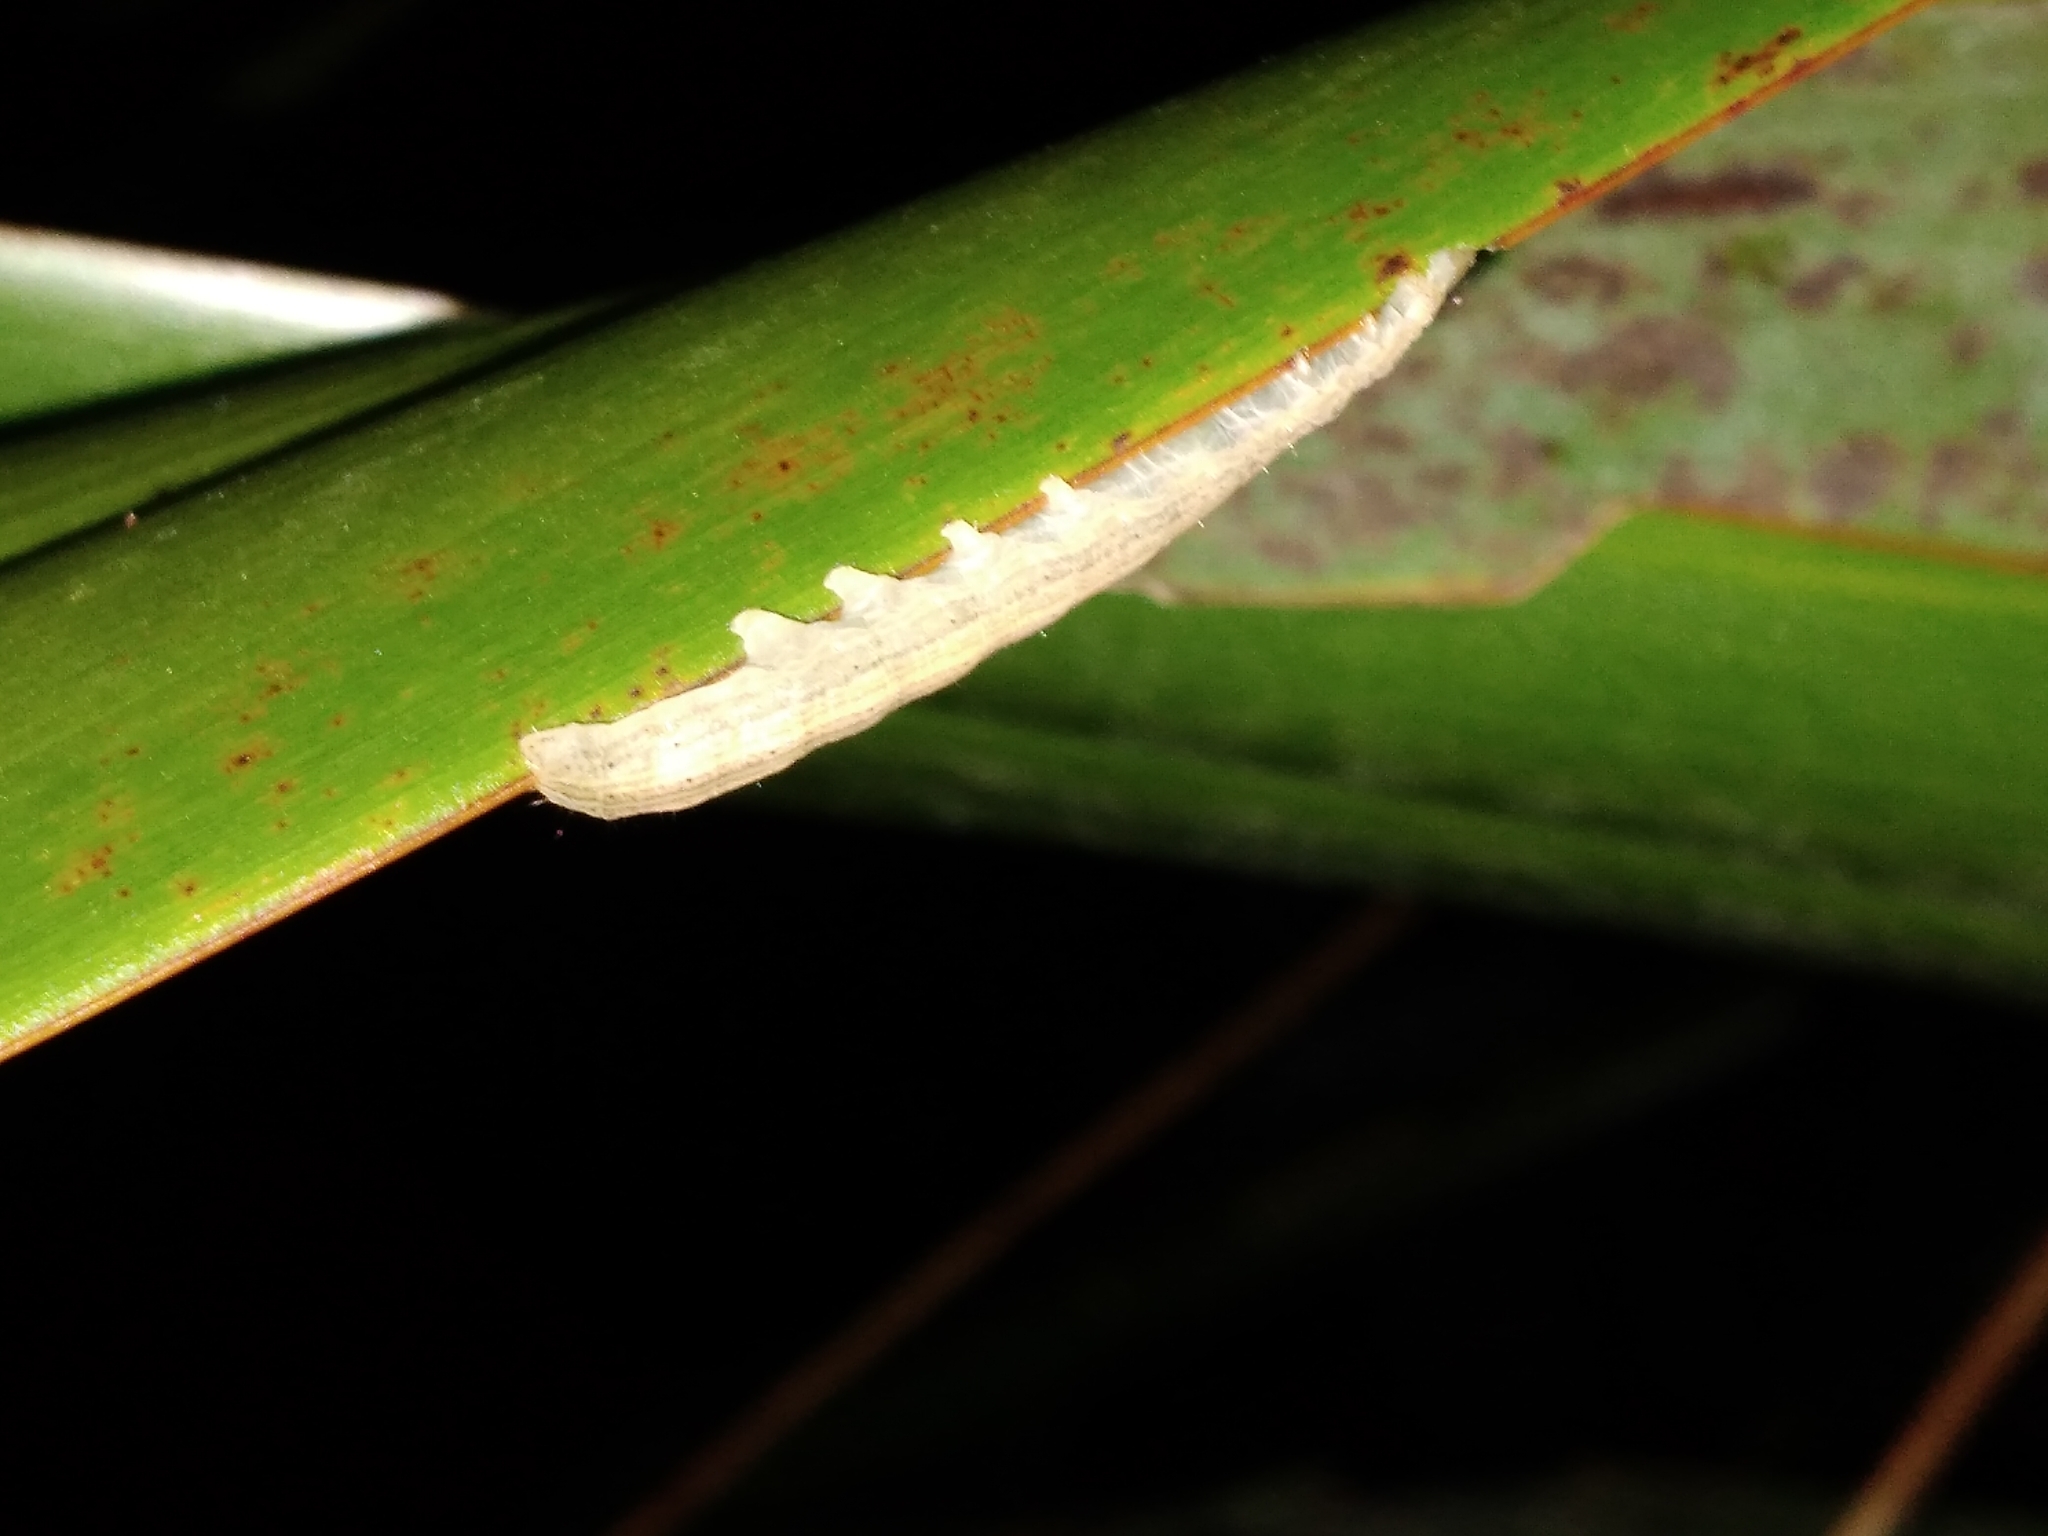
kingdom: Animalia
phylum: Arthropoda
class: Insecta
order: Lepidoptera
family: Noctuidae
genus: Ichneutica
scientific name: Ichneutica
